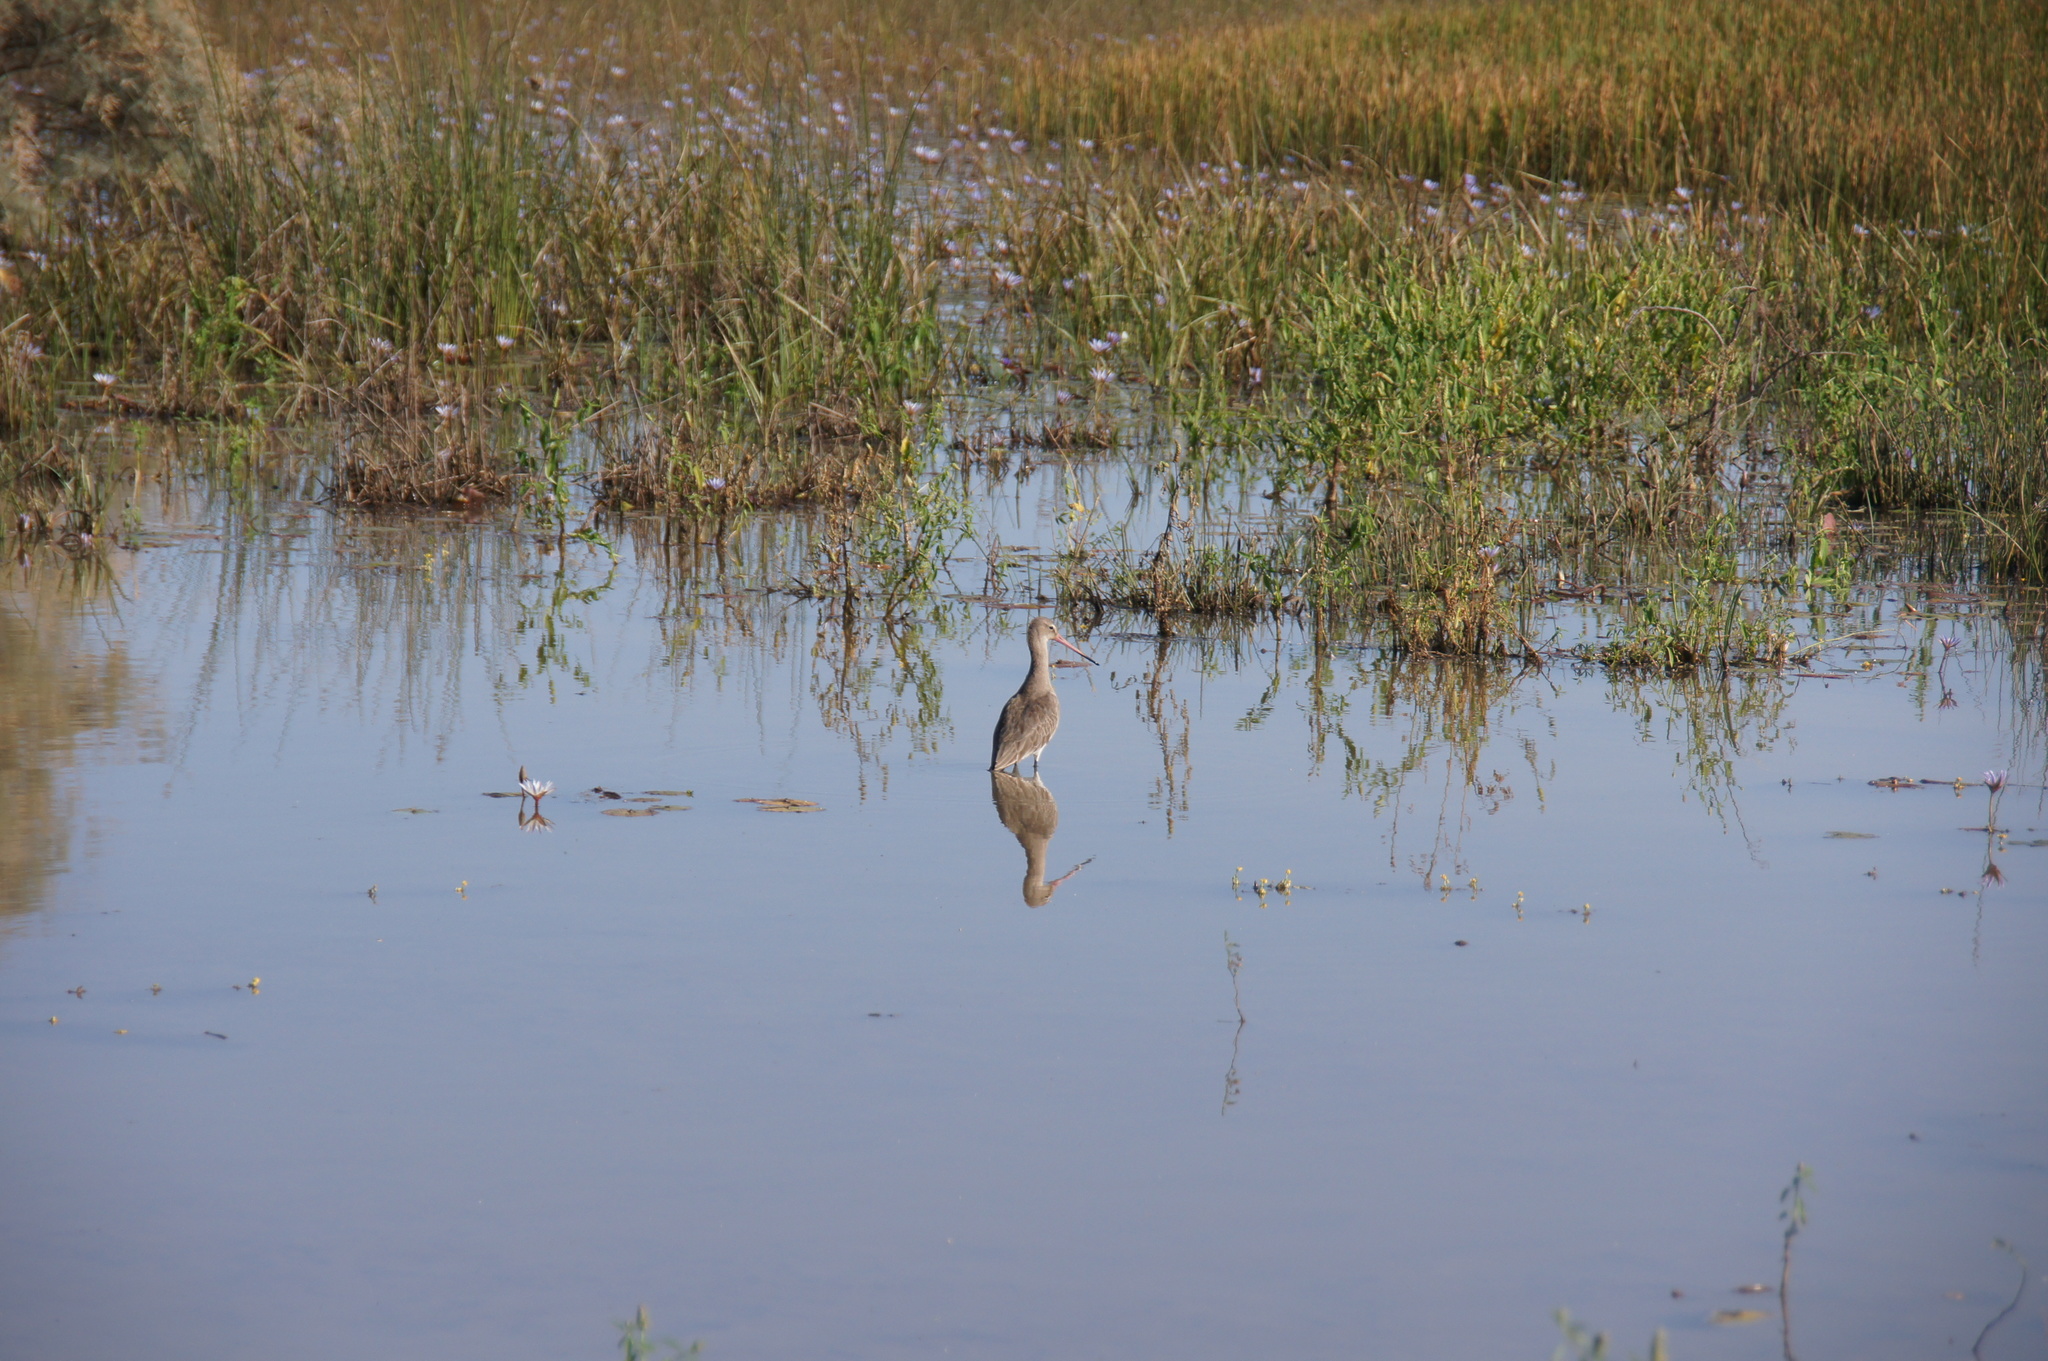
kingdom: Animalia
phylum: Chordata
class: Aves
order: Charadriiformes
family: Scolopacidae
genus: Limosa
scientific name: Limosa limosa
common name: Black-tailed godwit
